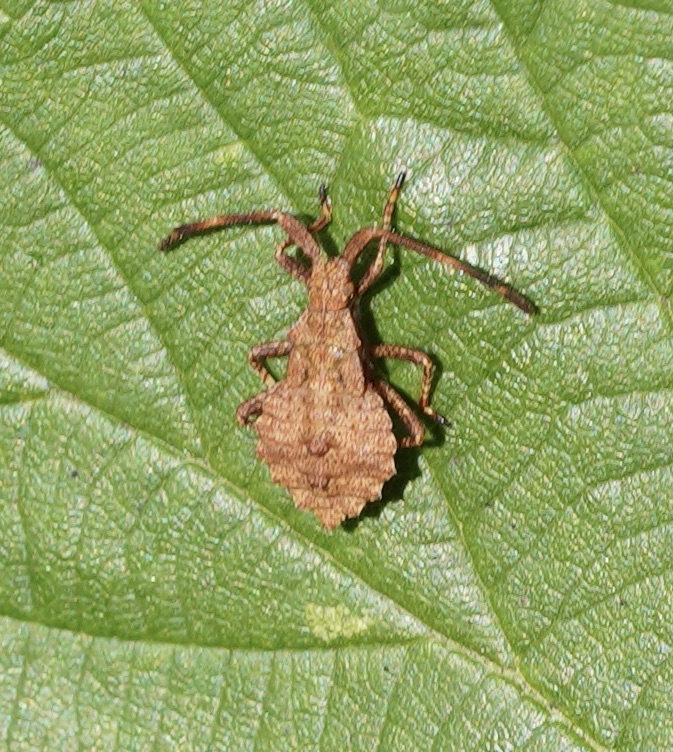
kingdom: Animalia
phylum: Arthropoda
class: Insecta
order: Hemiptera
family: Coreidae
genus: Coreus
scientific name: Coreus marginatus
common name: Dock bug
